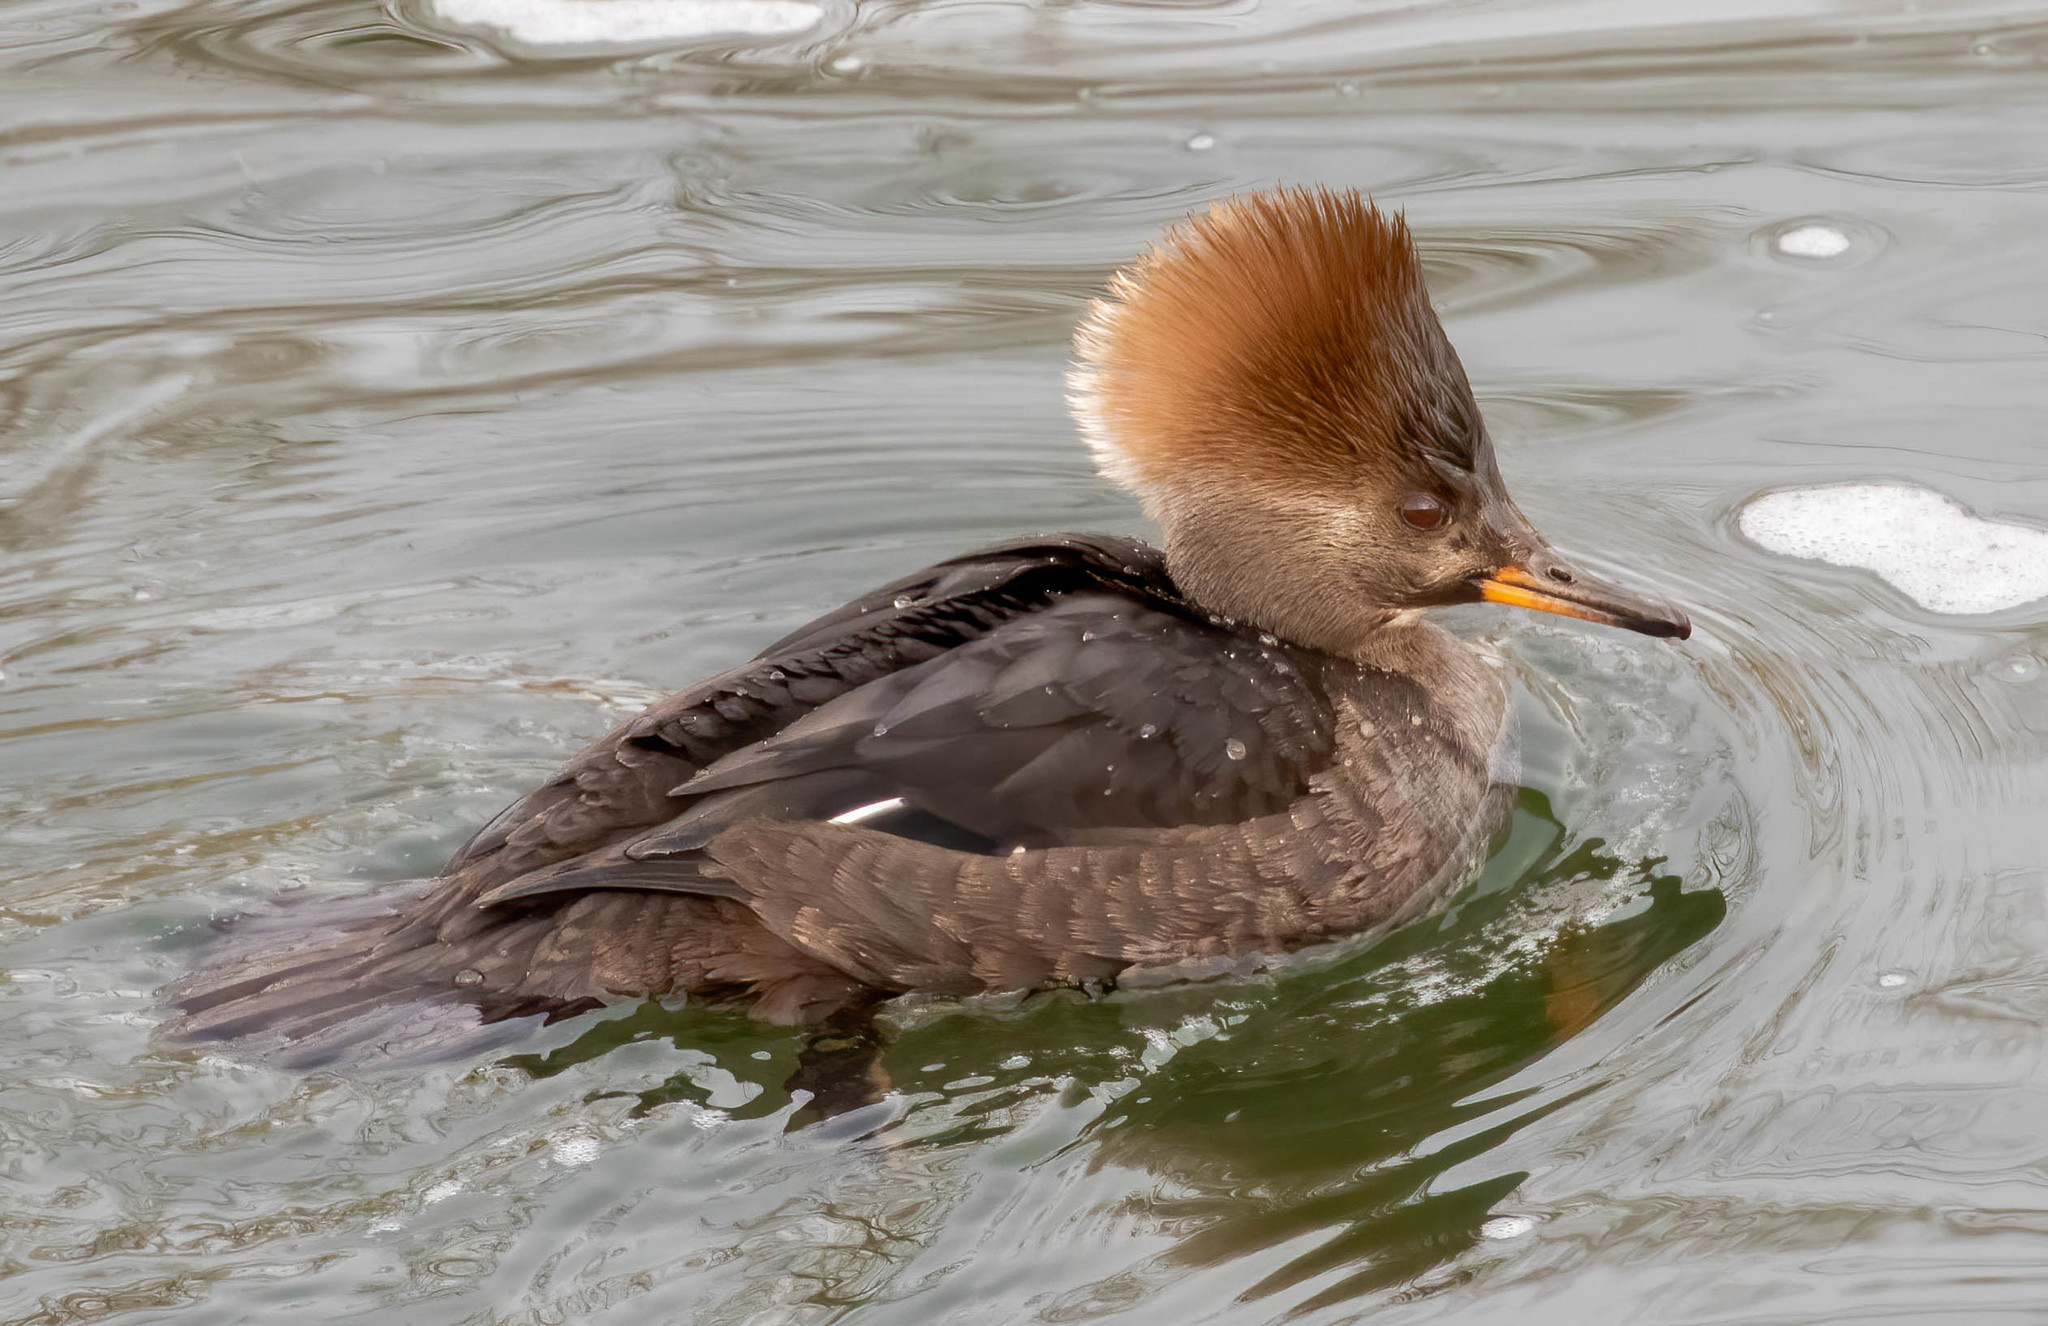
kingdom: Animalia
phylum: Chordata
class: Aves
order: Anseriformes
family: Anatidae
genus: Lophodytes
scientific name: Lophodytes cucullatus
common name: Hooded merganser
